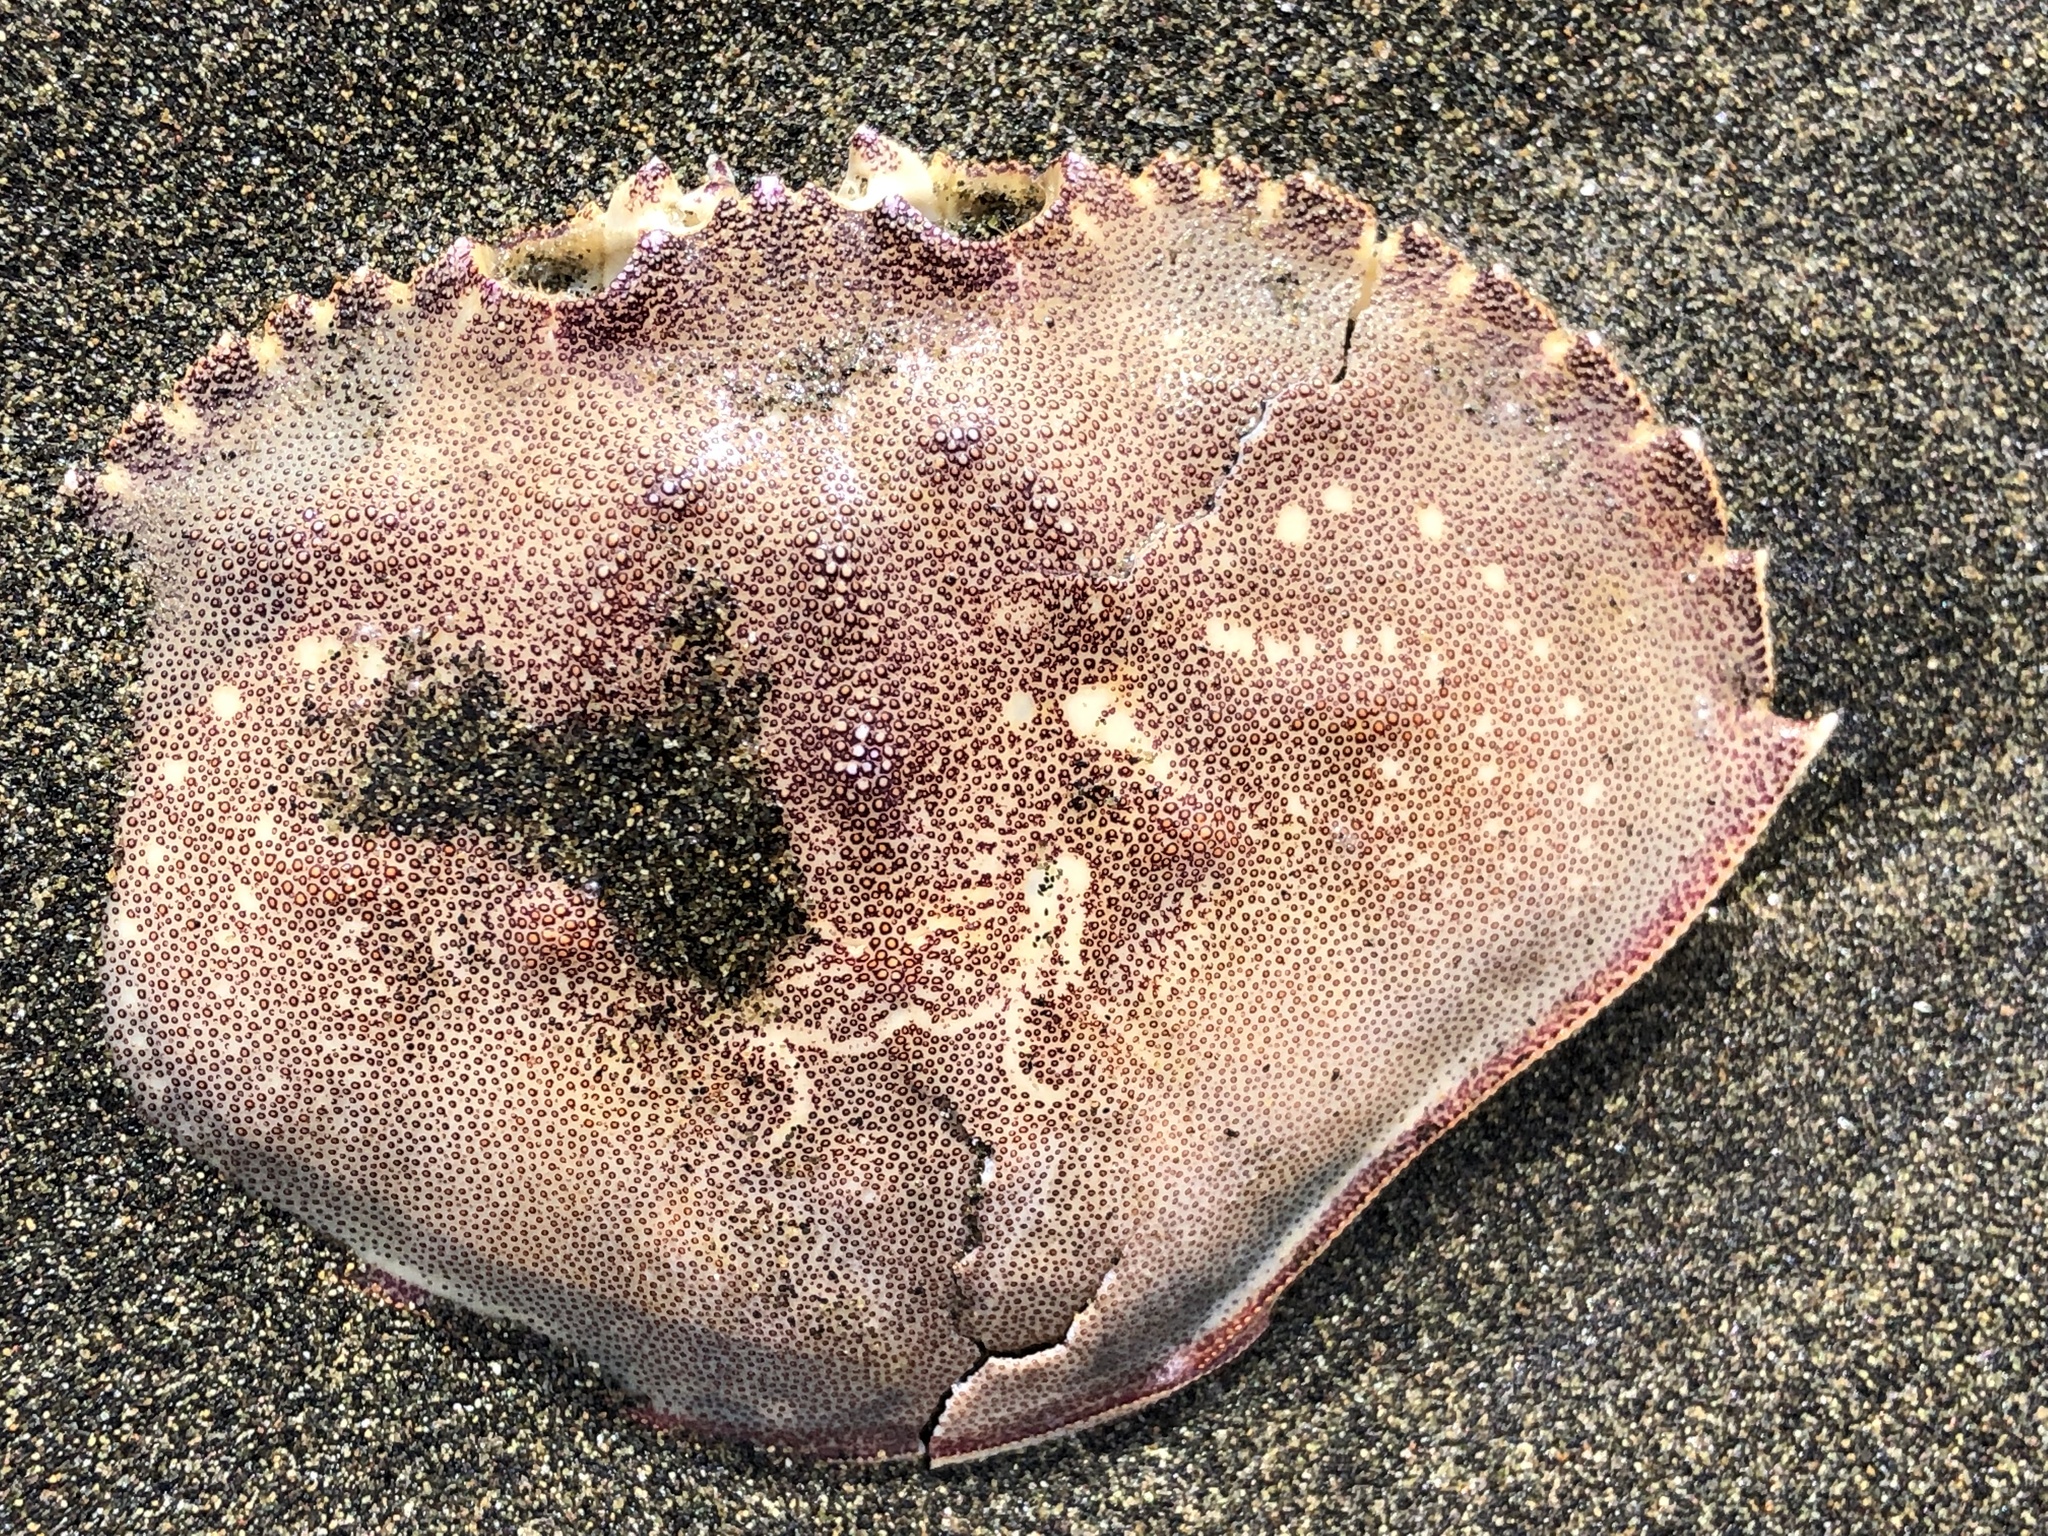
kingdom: Animalia
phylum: Arthropoda
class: Malacostraca
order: Decapoda
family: Cancridae
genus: Metacarcinus
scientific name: Metacarcinus magister
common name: Californian crab
